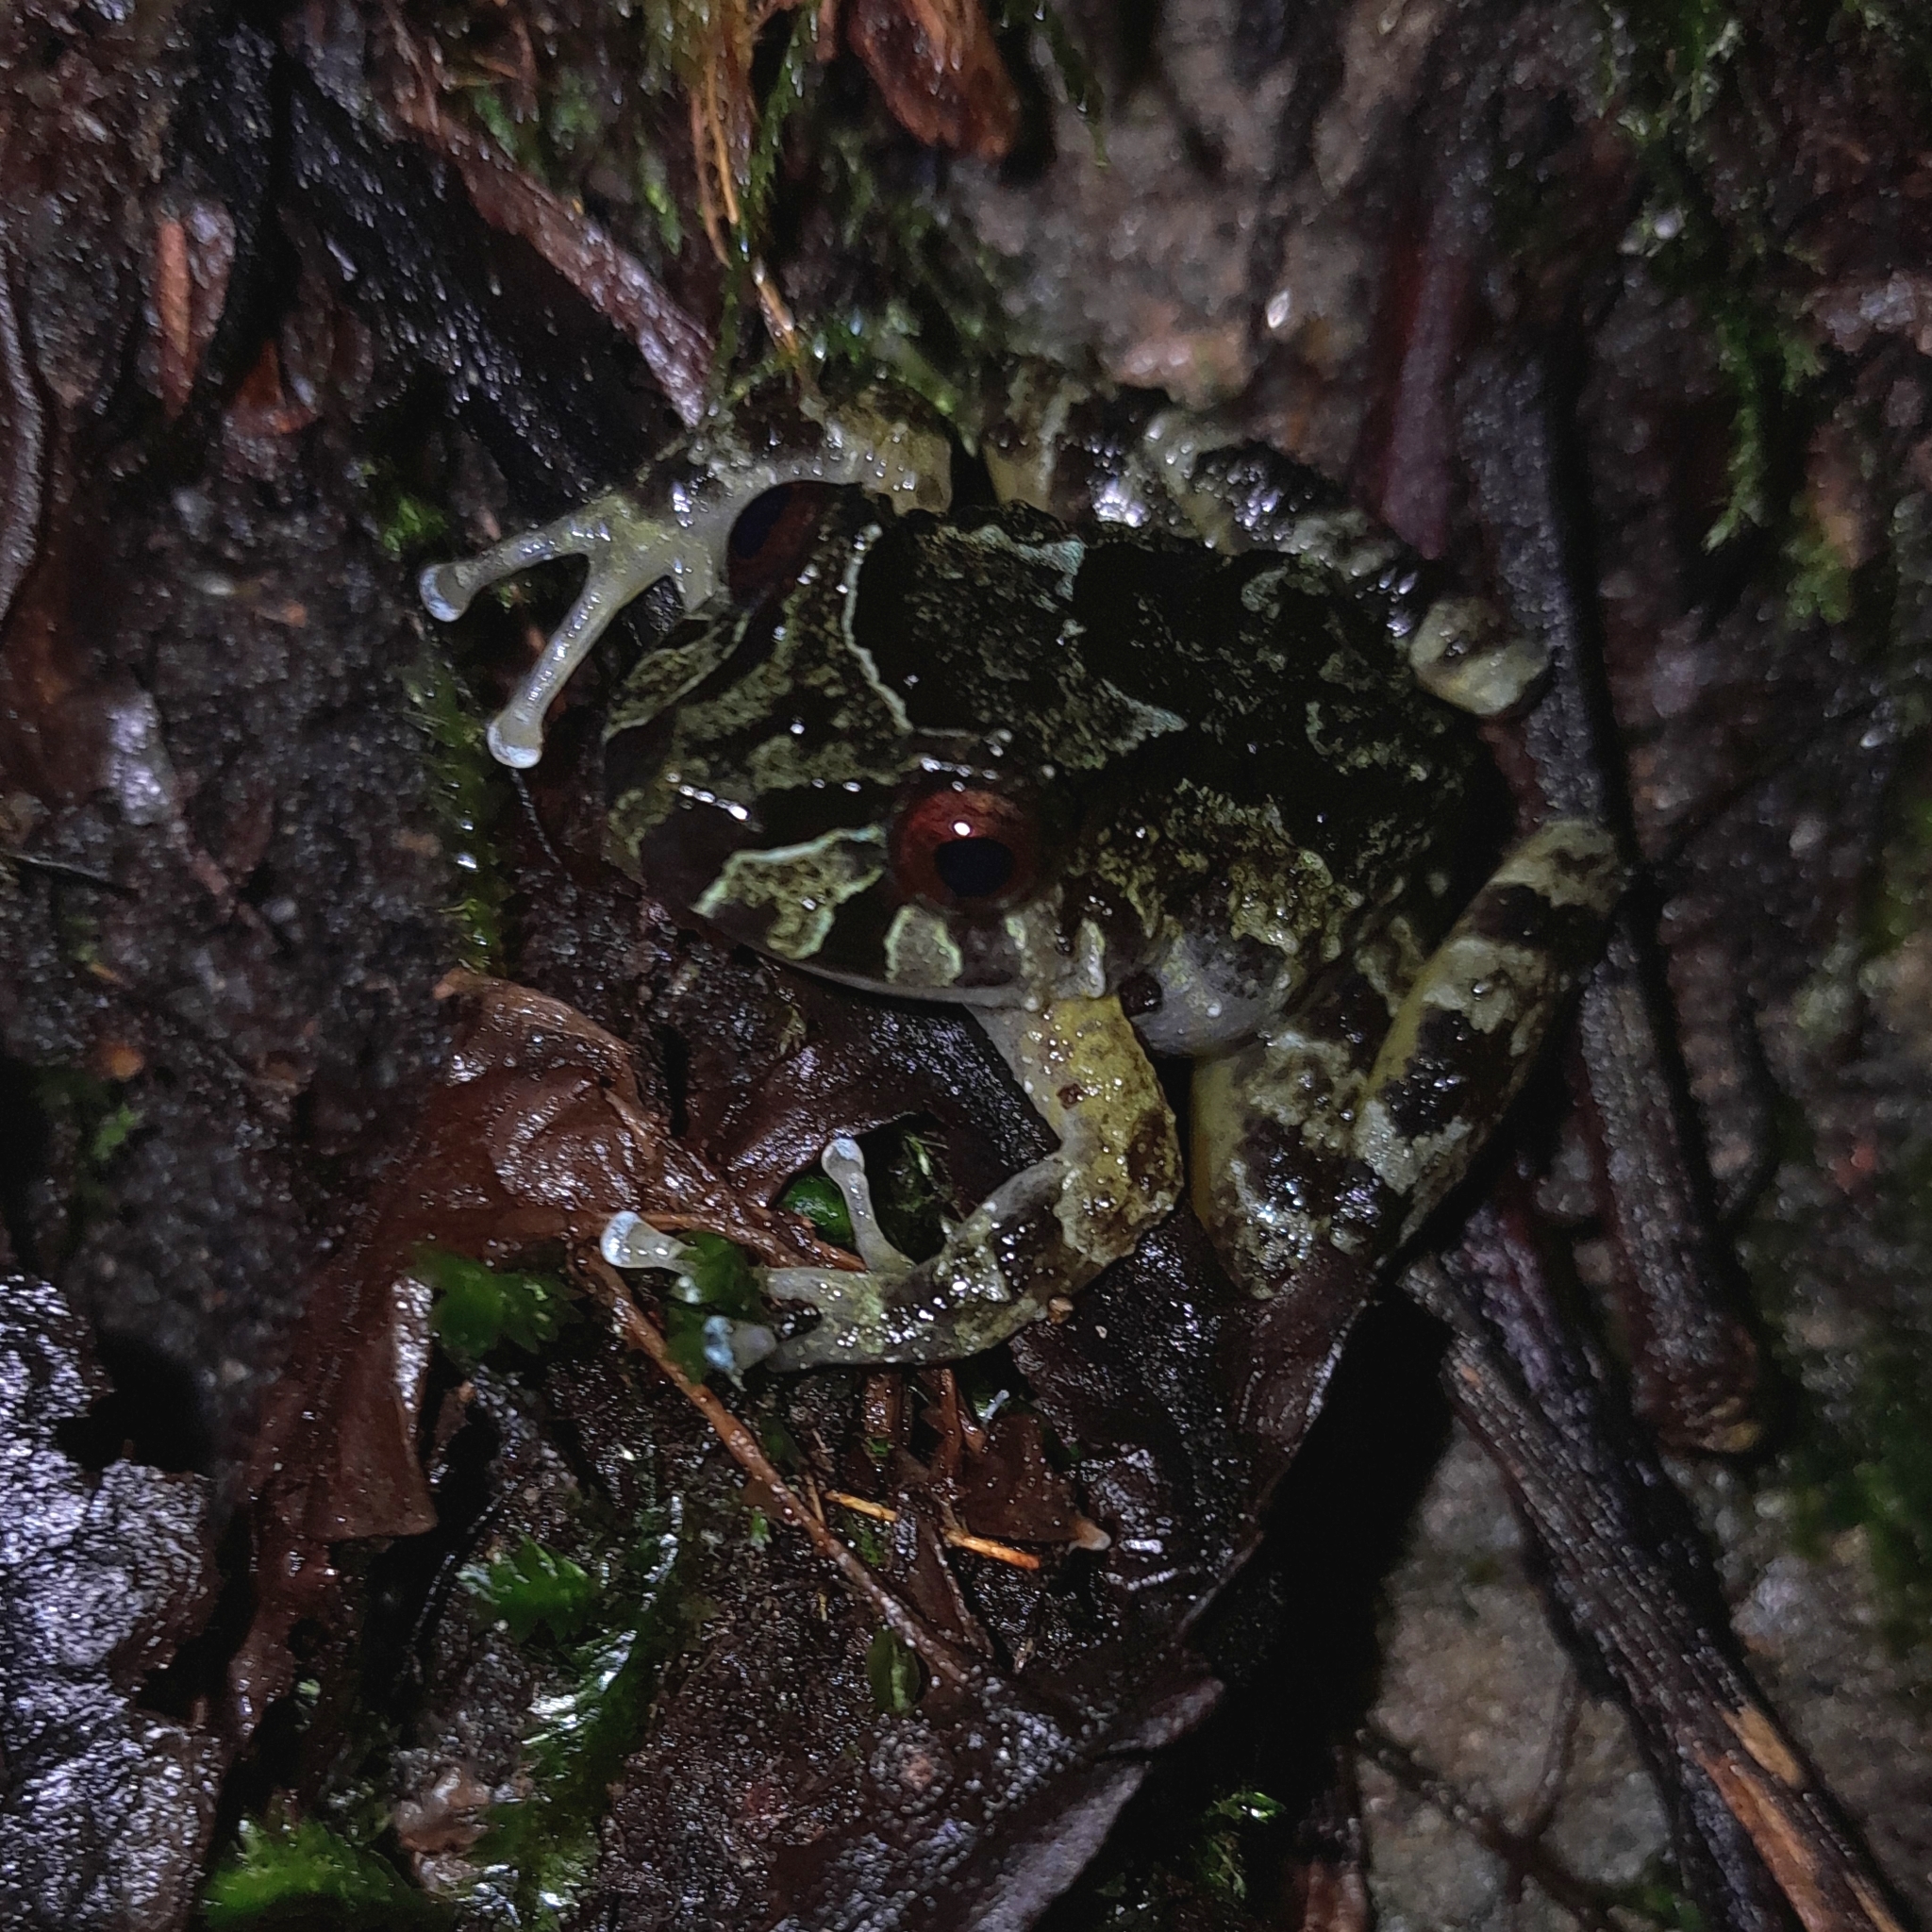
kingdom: Animalia
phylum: Chordata
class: Amphibia
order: Anura
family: Craugastoridae
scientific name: Craugastoridae
